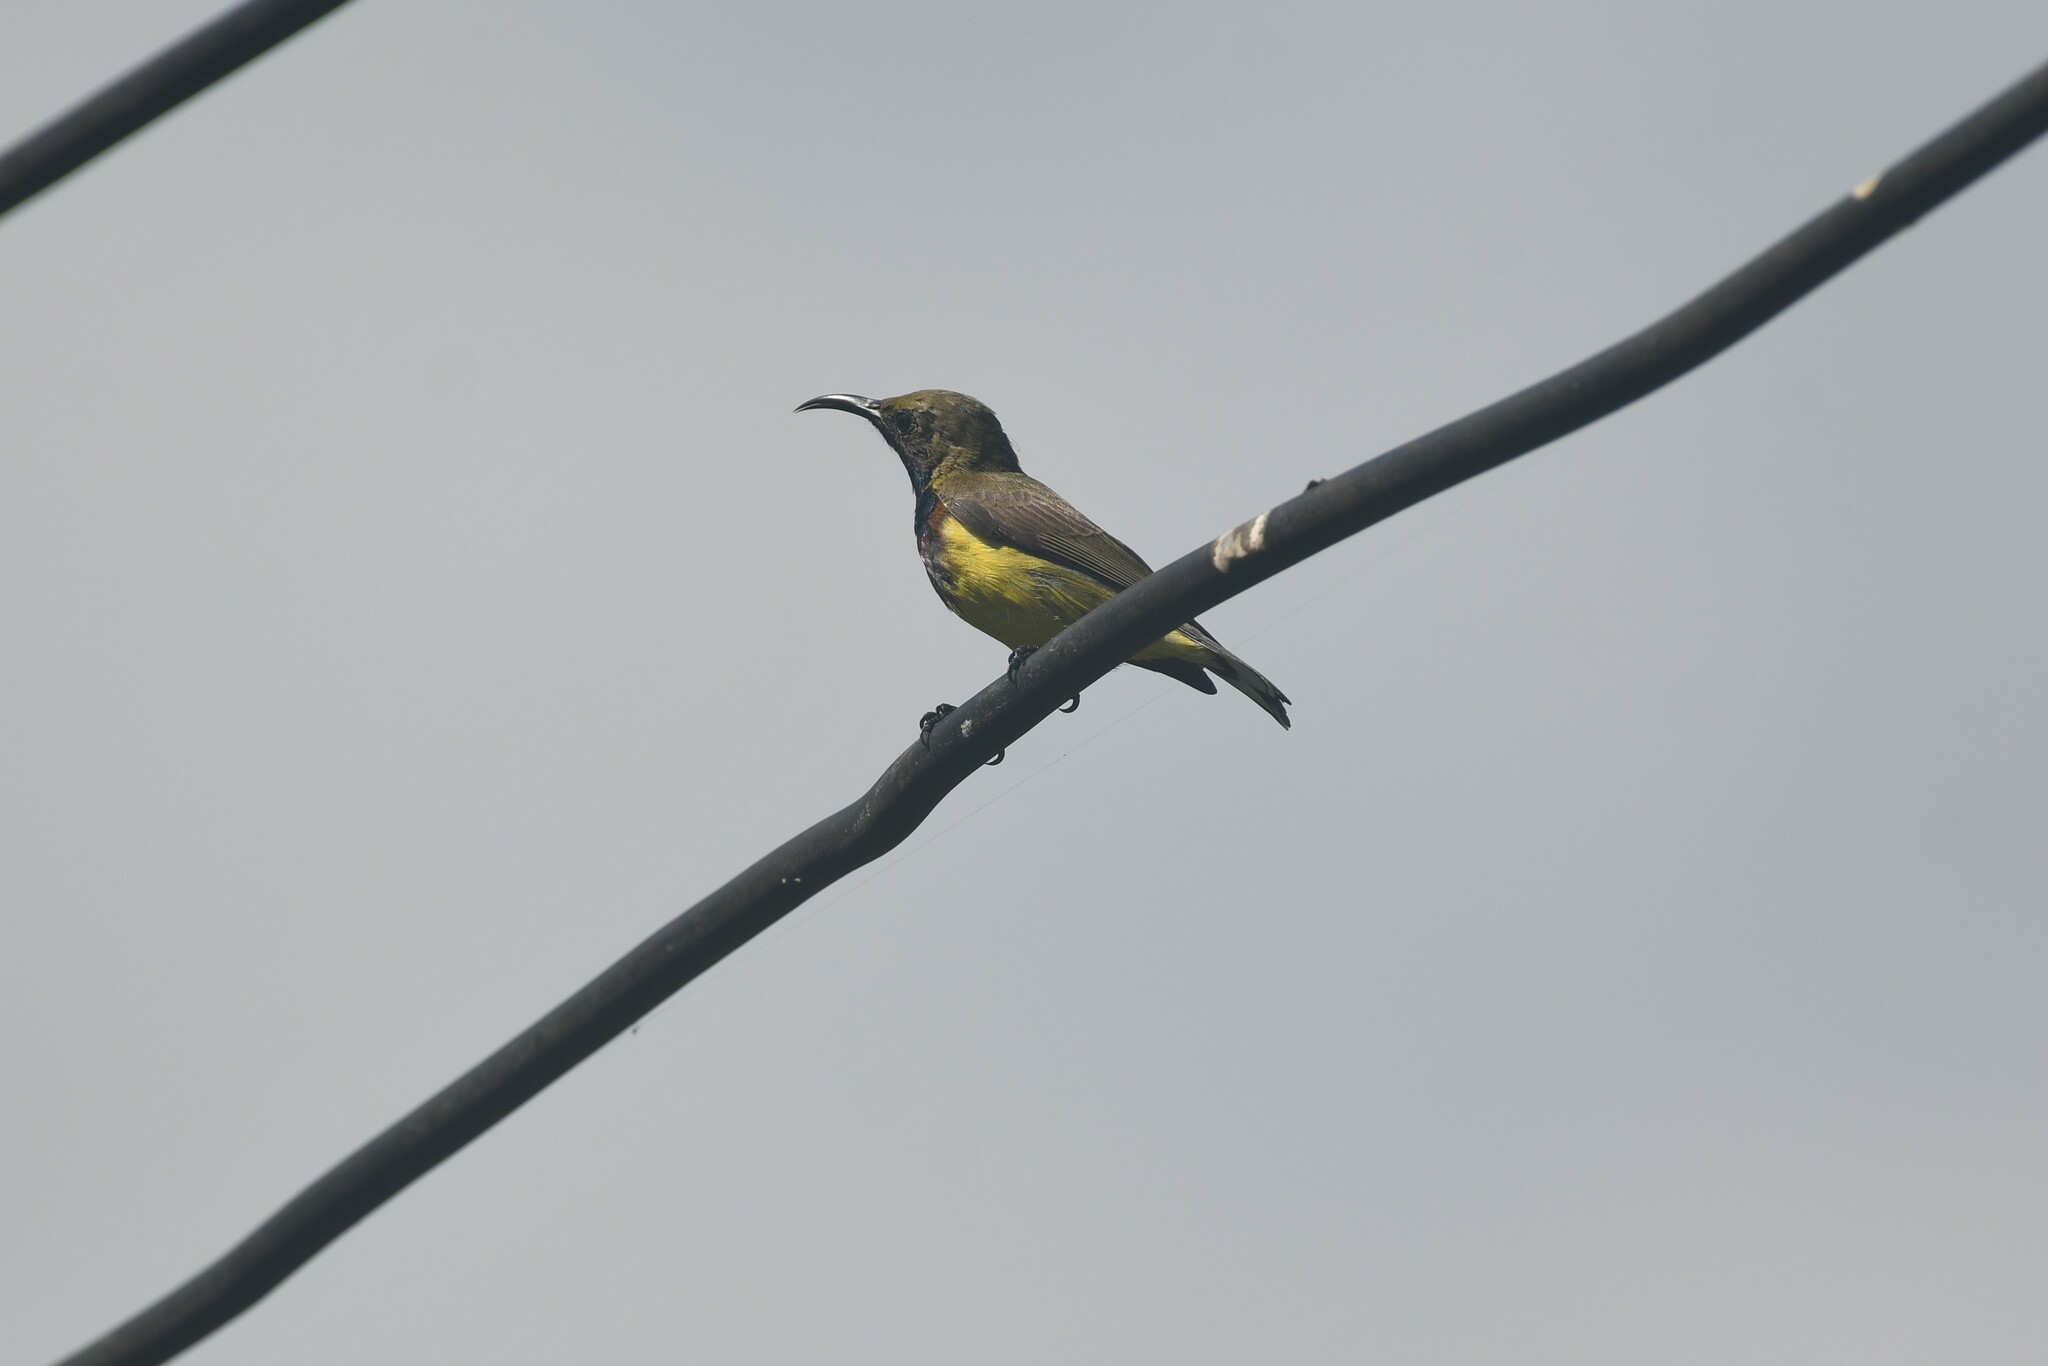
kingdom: Animalia
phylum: Chordata
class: Aves
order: Passeriformes
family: Nectariniidae
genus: Cinnyris
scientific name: Cinnyris
